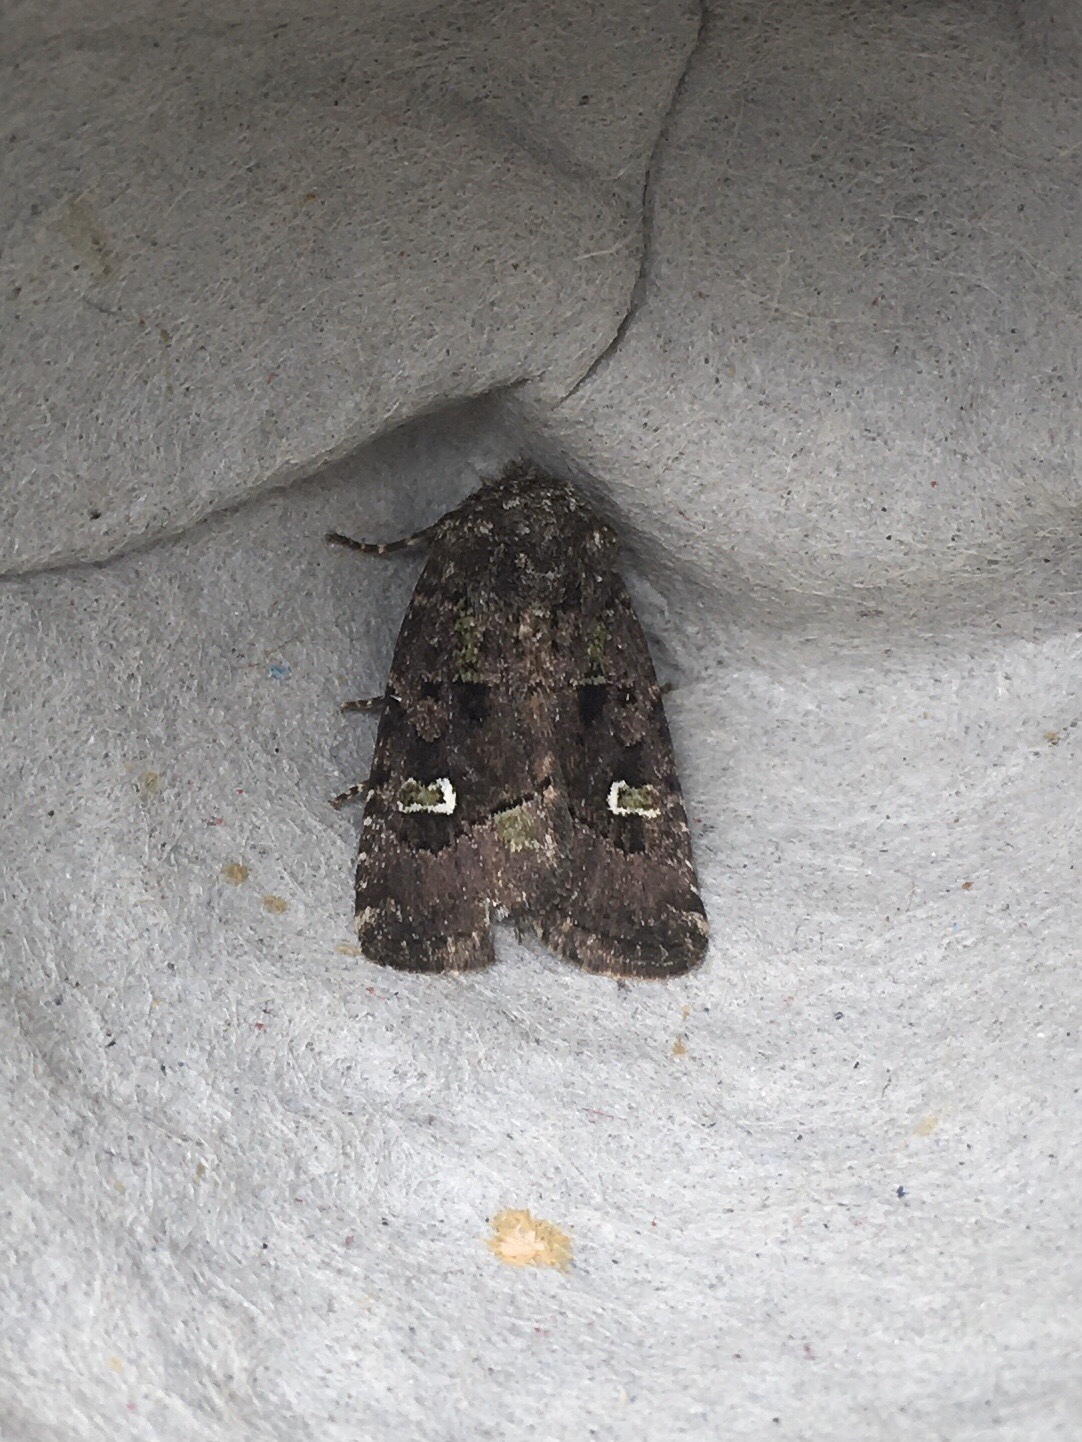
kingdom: Animalia
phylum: Arthropoda
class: Insecta
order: Lepidoptera
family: Noctuidae
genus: Lacinipolia
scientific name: Lacinipolia renigera
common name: Kidney-spotted minor
